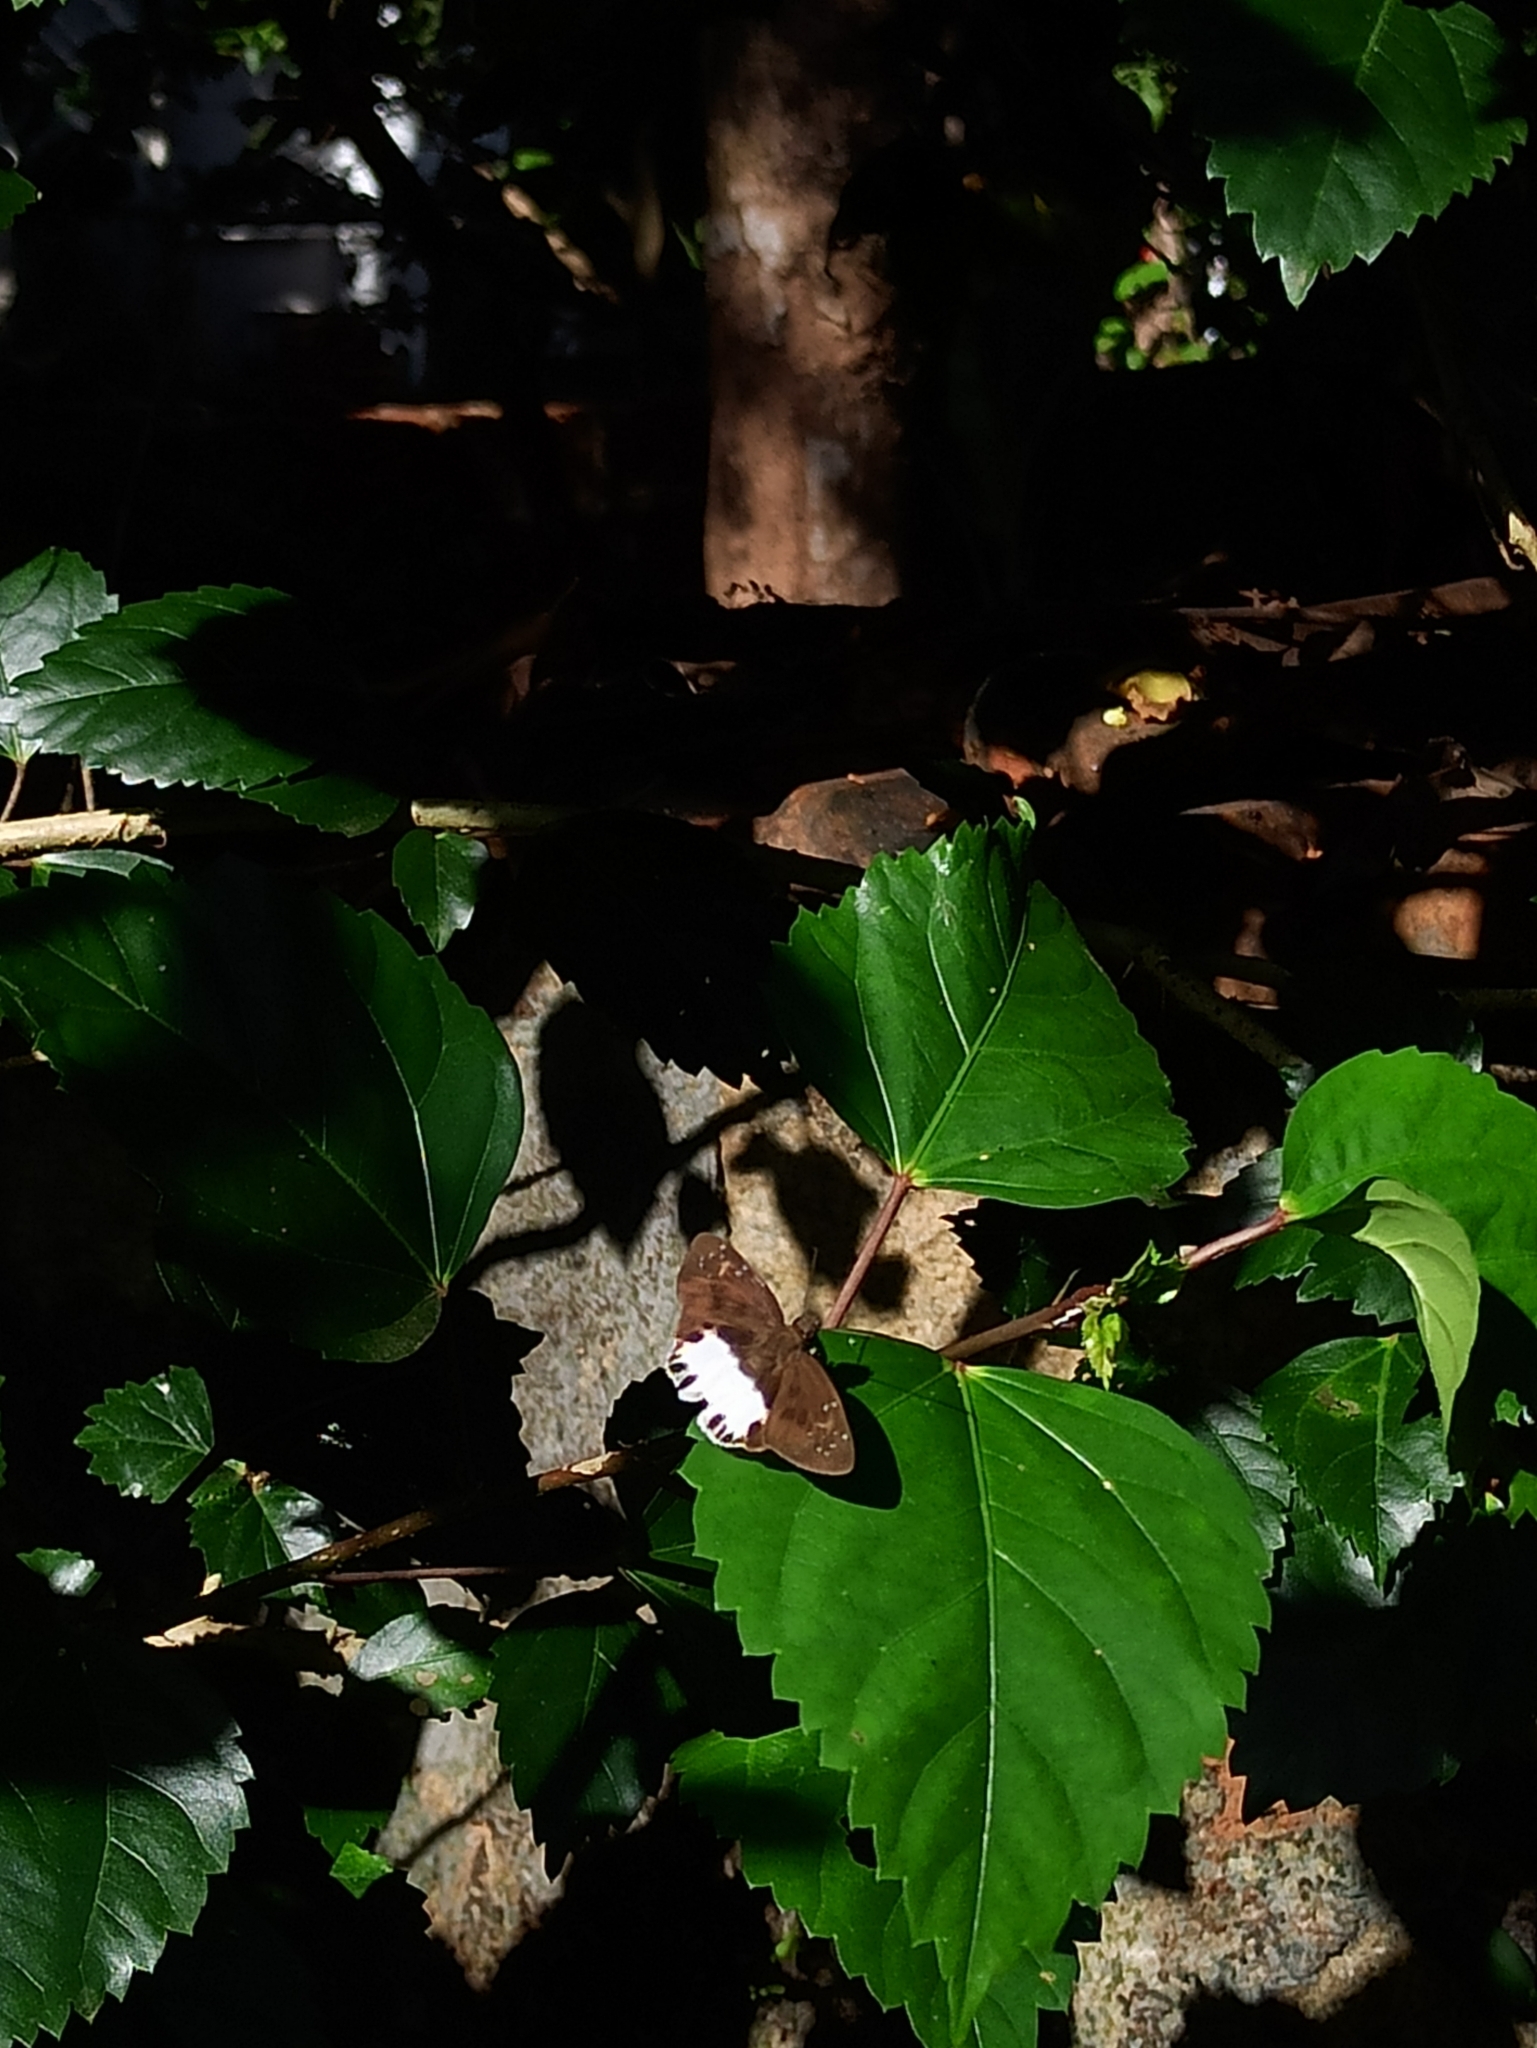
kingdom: Animalia
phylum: Arthropoda
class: Insecta
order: Lepidoptera
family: Hesperiidae
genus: Tagiades
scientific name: Tagiades litigiosa
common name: Water snow flat
